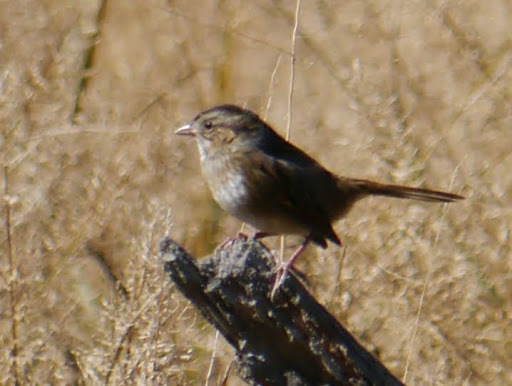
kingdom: Animalia
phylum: Chordata
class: Aves
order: Passeriformes
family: Passerellidae
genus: Melospiza
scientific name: Melospiza georgiana
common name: Swamp sparrow
